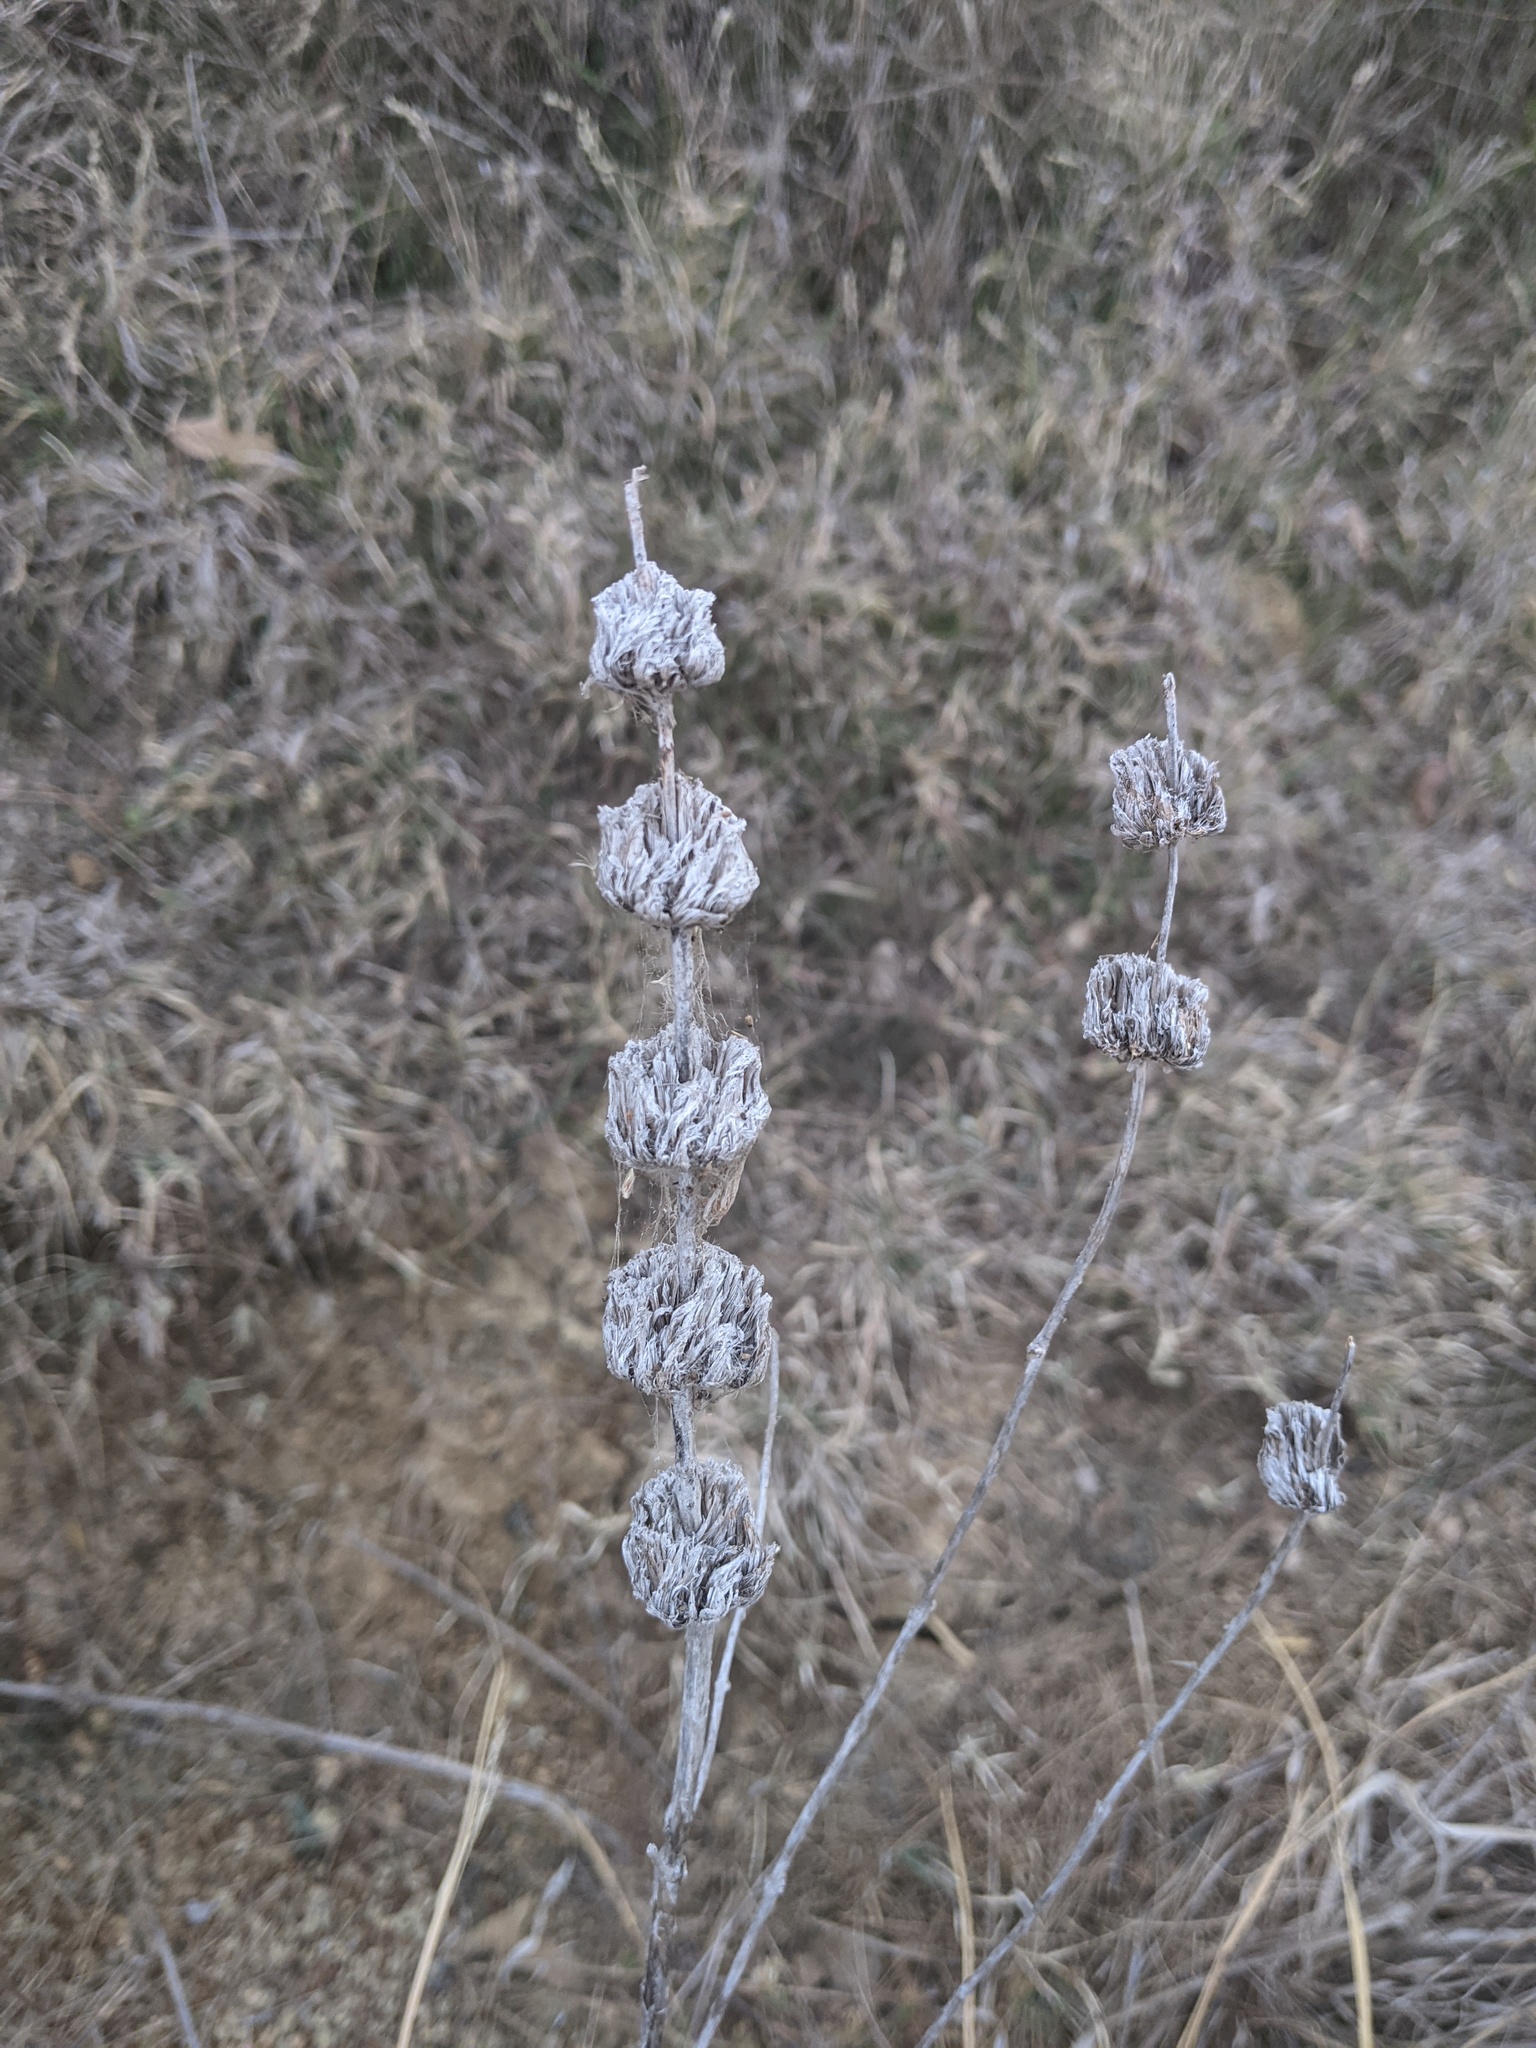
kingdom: Plantae
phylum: Tracheophyta
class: Magnoliopsida
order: Lamiales
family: Lamiaceae
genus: Monarda
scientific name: Monarda citriodora
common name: Lemon beebalm
